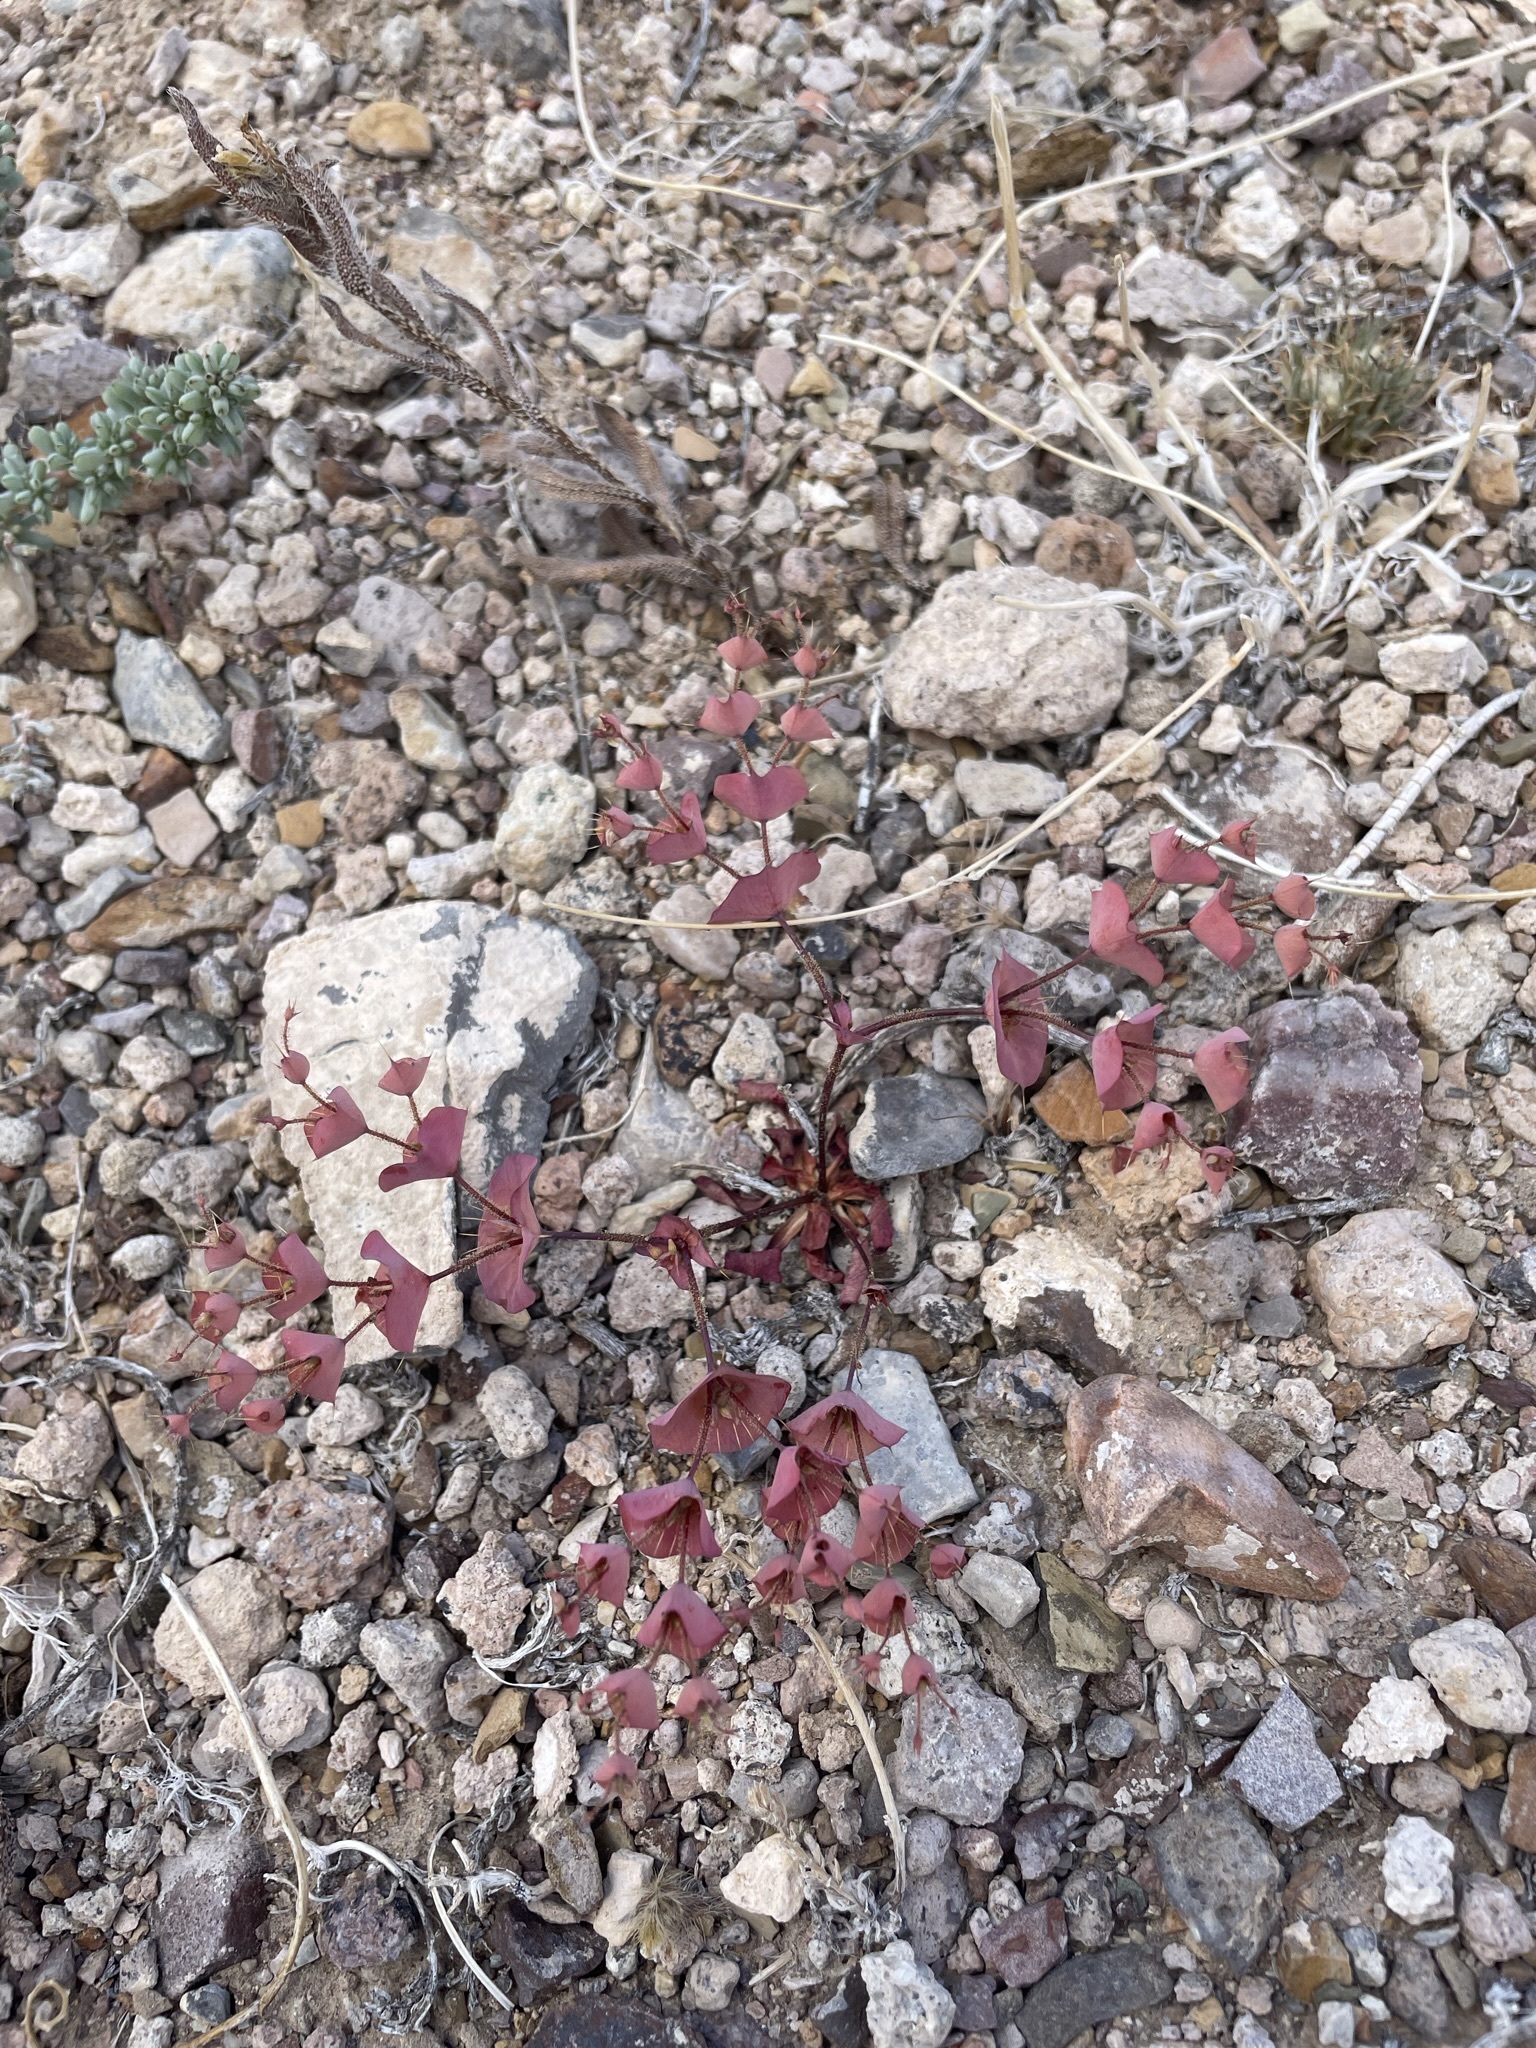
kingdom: Plantae
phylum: Tracheophyta
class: Magnoliopsida
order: Caryophyllales
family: Polygonaceae
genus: Oxytheca
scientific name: Oxytheca perfoliata
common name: Round-leaf puncturebract
